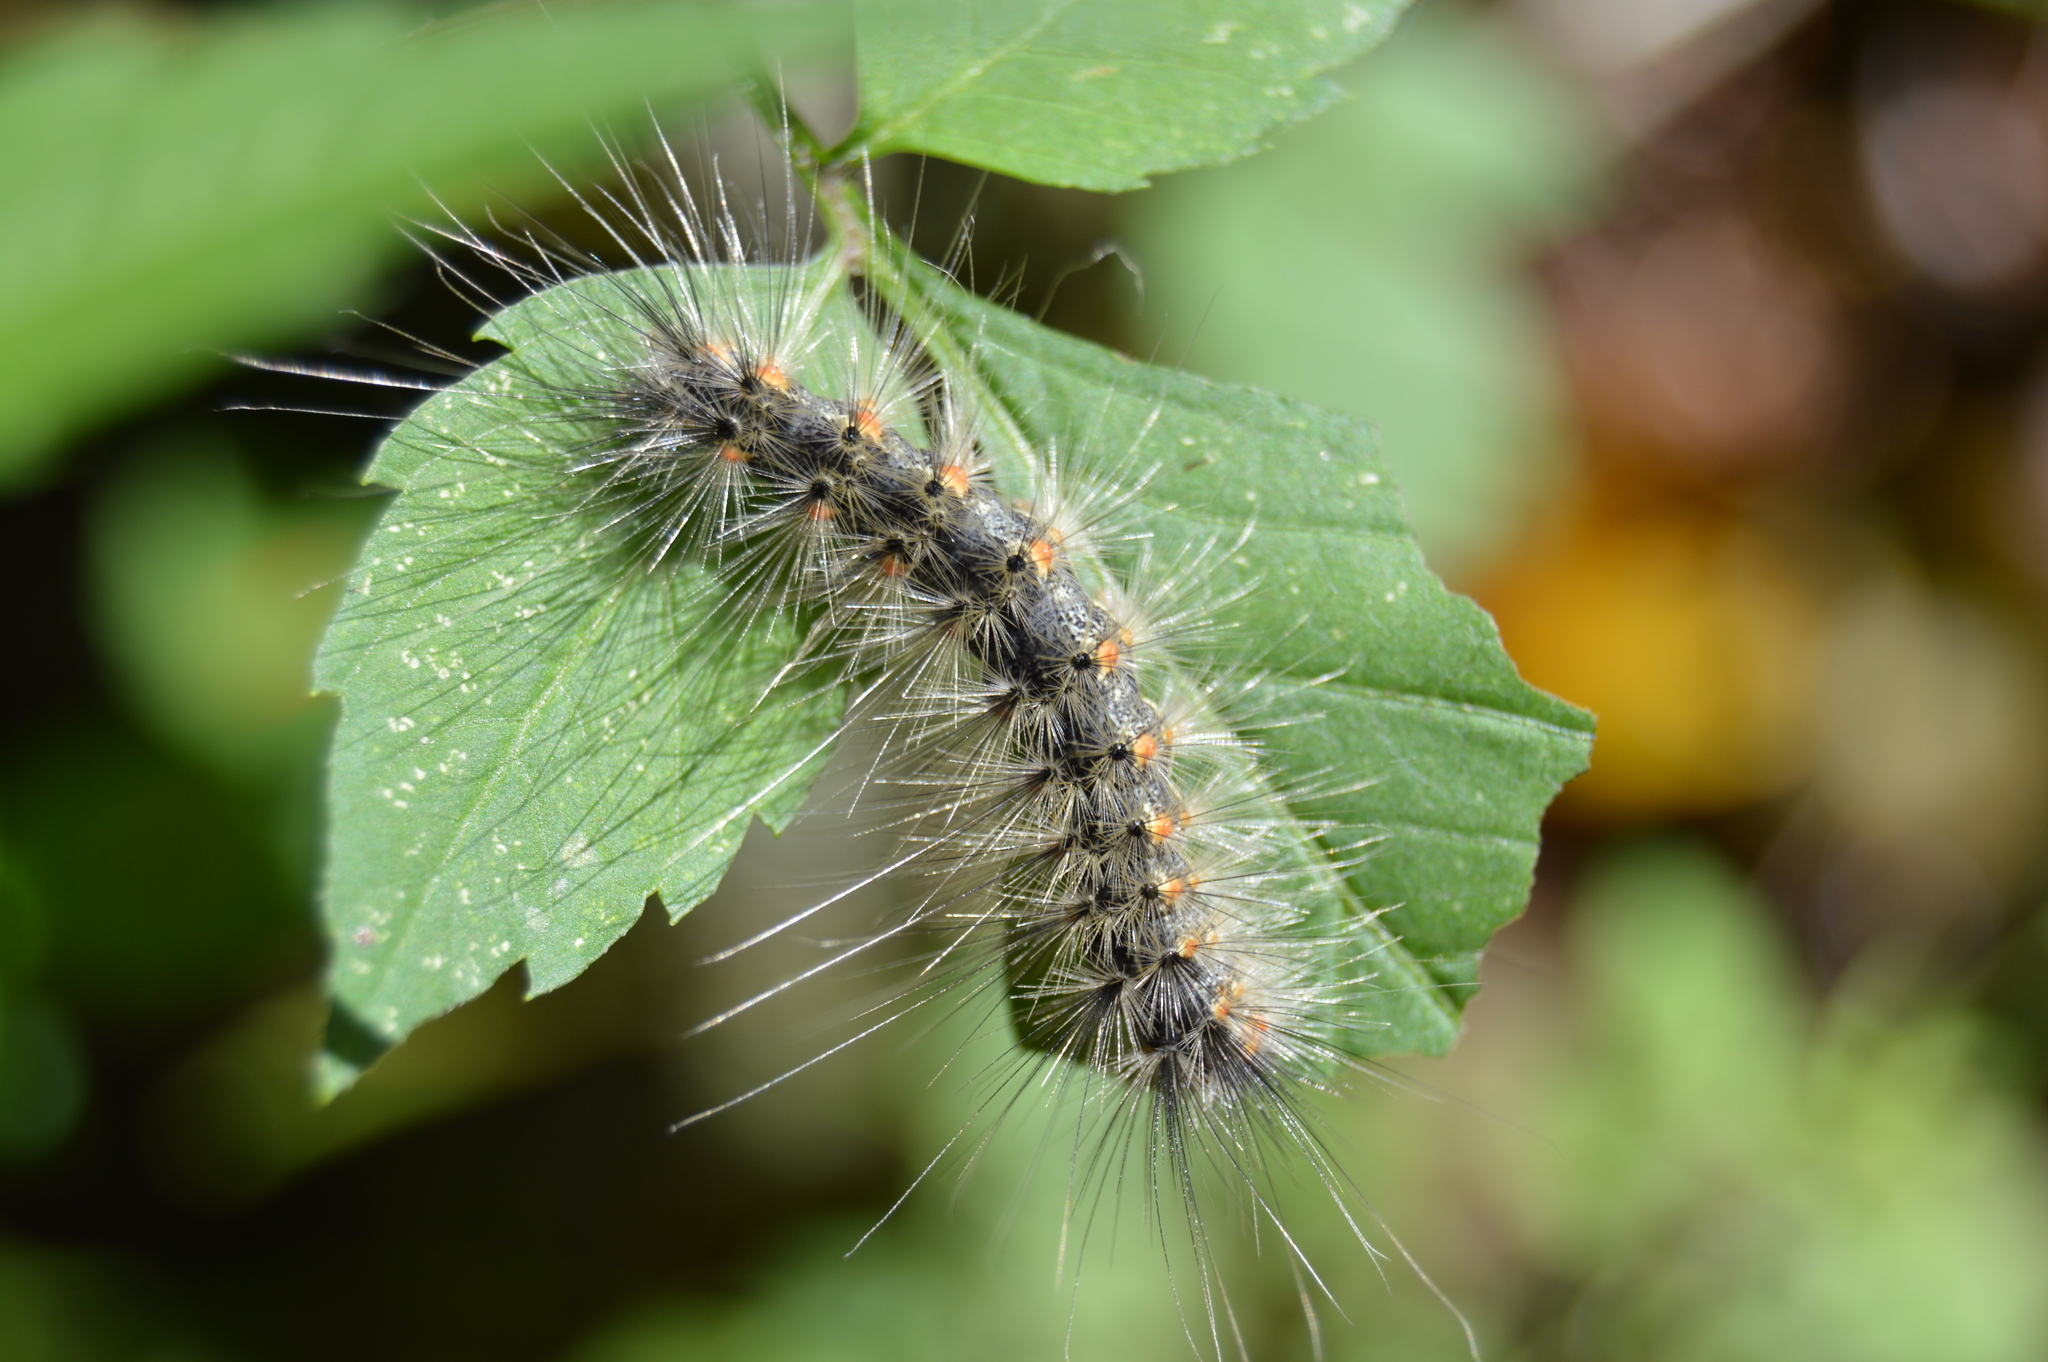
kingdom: Animalia
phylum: Arthropoda
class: Insecta
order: Lepidoptera
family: Erebidae
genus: Hyphantria
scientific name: Hyphantria cunea
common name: American white moth
